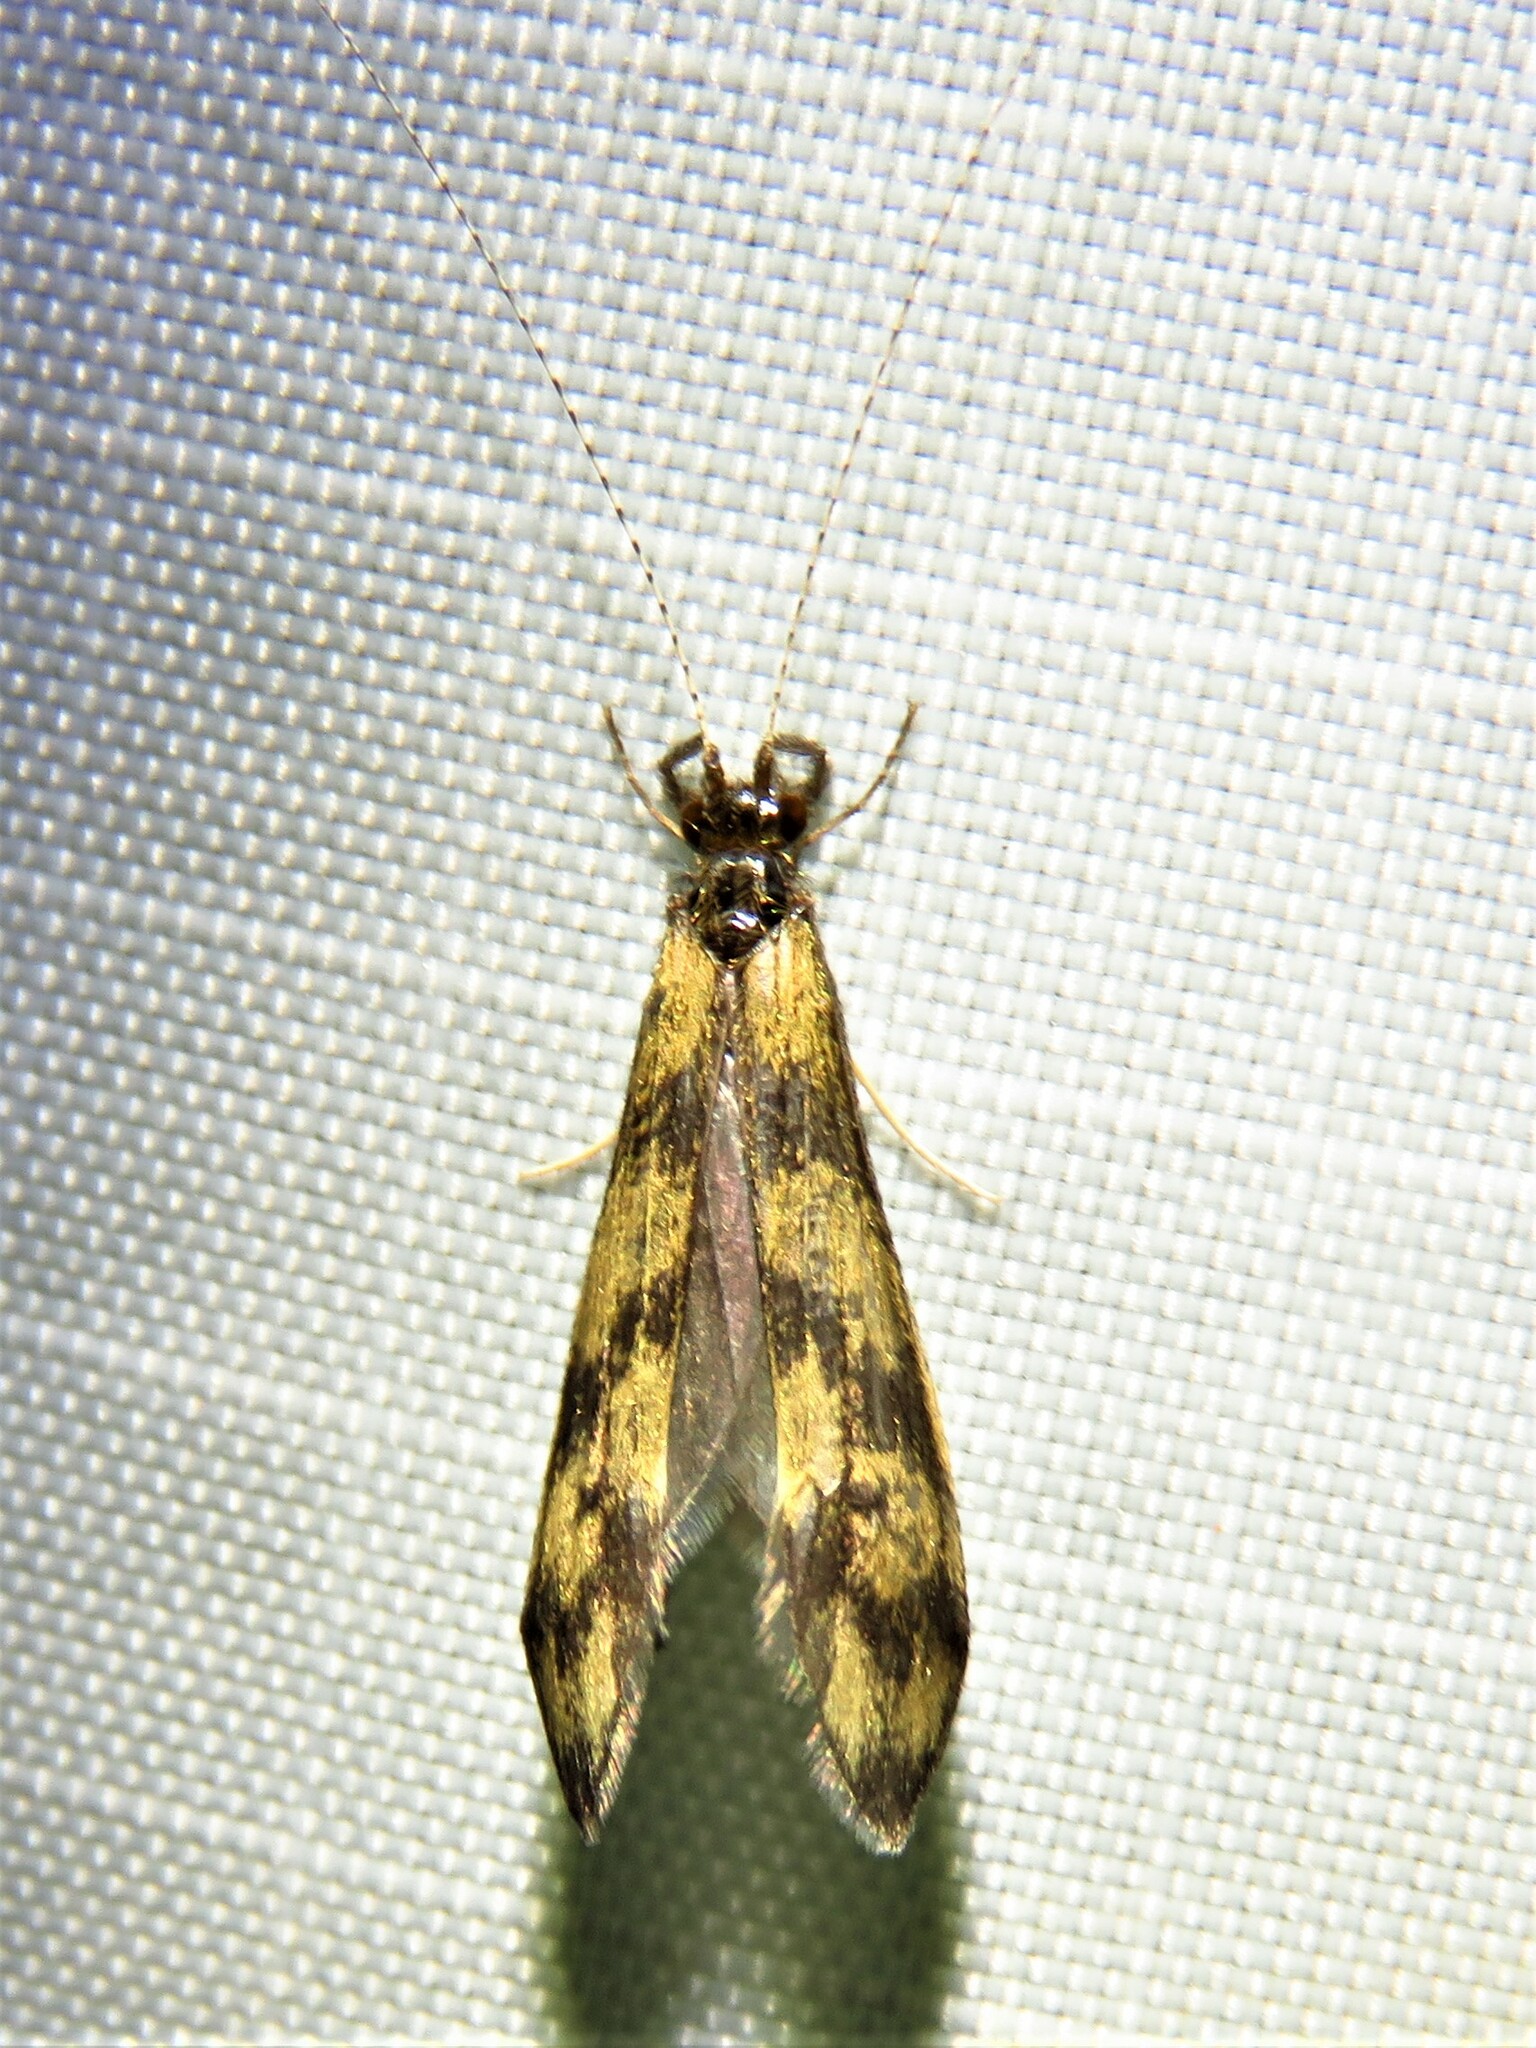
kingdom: Animalia
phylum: Arthropoda
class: Insecta
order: Trichoptera
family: Leptoceridae
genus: Mystacides
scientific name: Mystacides longicornis
